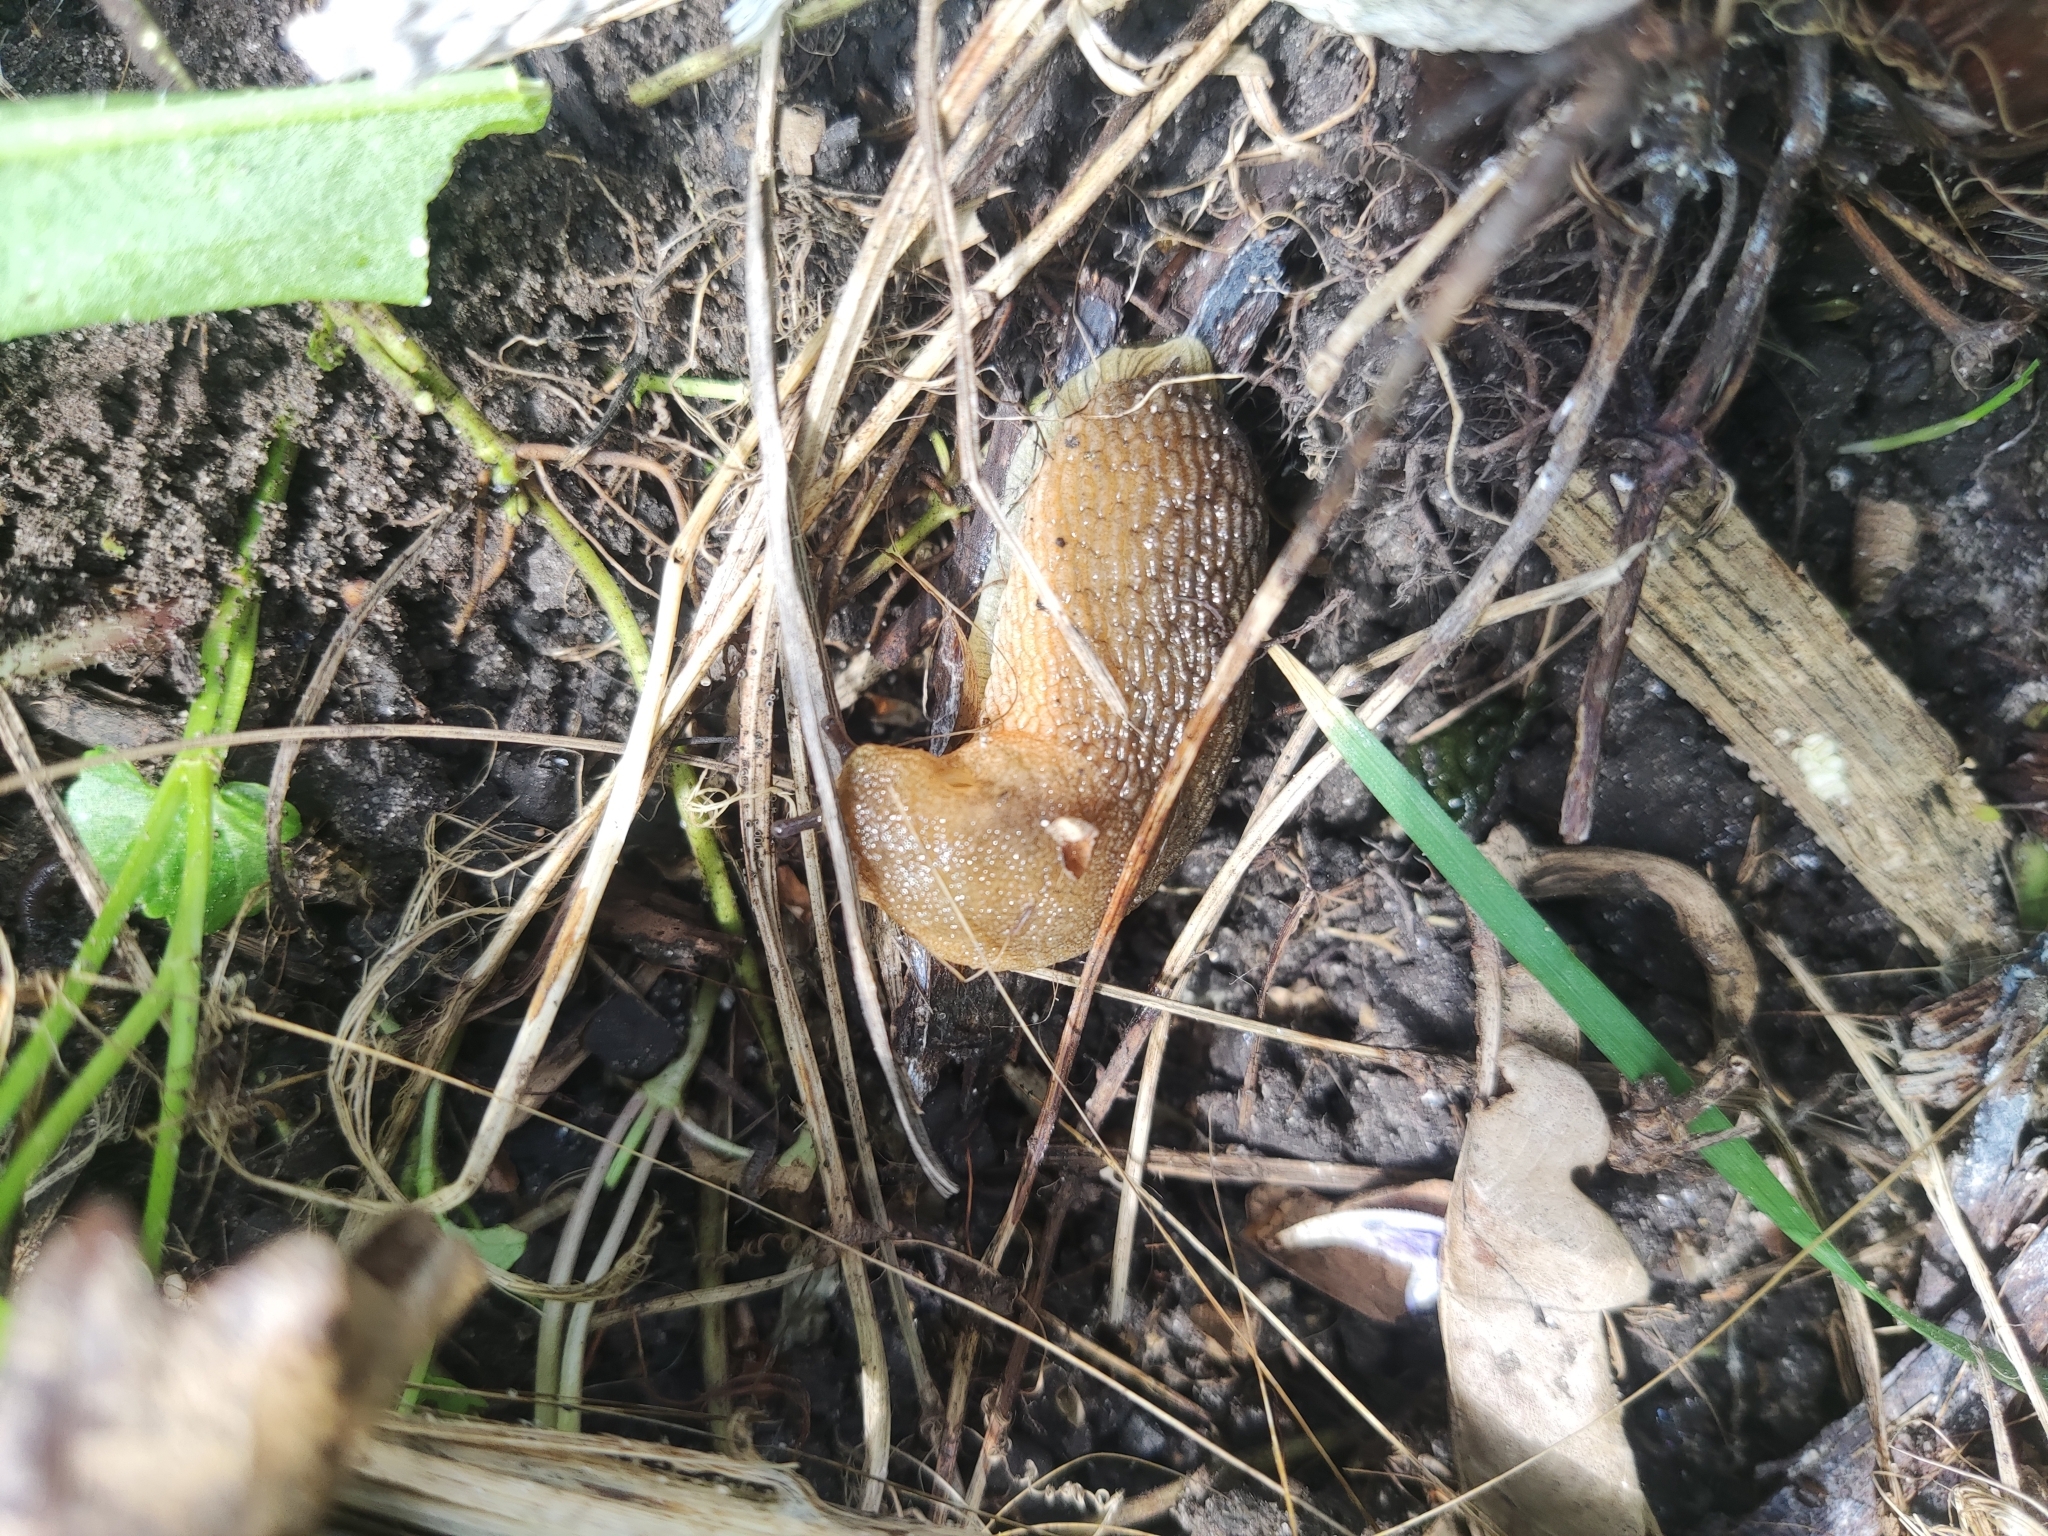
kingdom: Animalia
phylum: Mollusca
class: Gastropoda
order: Stylommatophora
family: Arionidae
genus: Arion
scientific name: Arion fuscus
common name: Northern dusky slug
